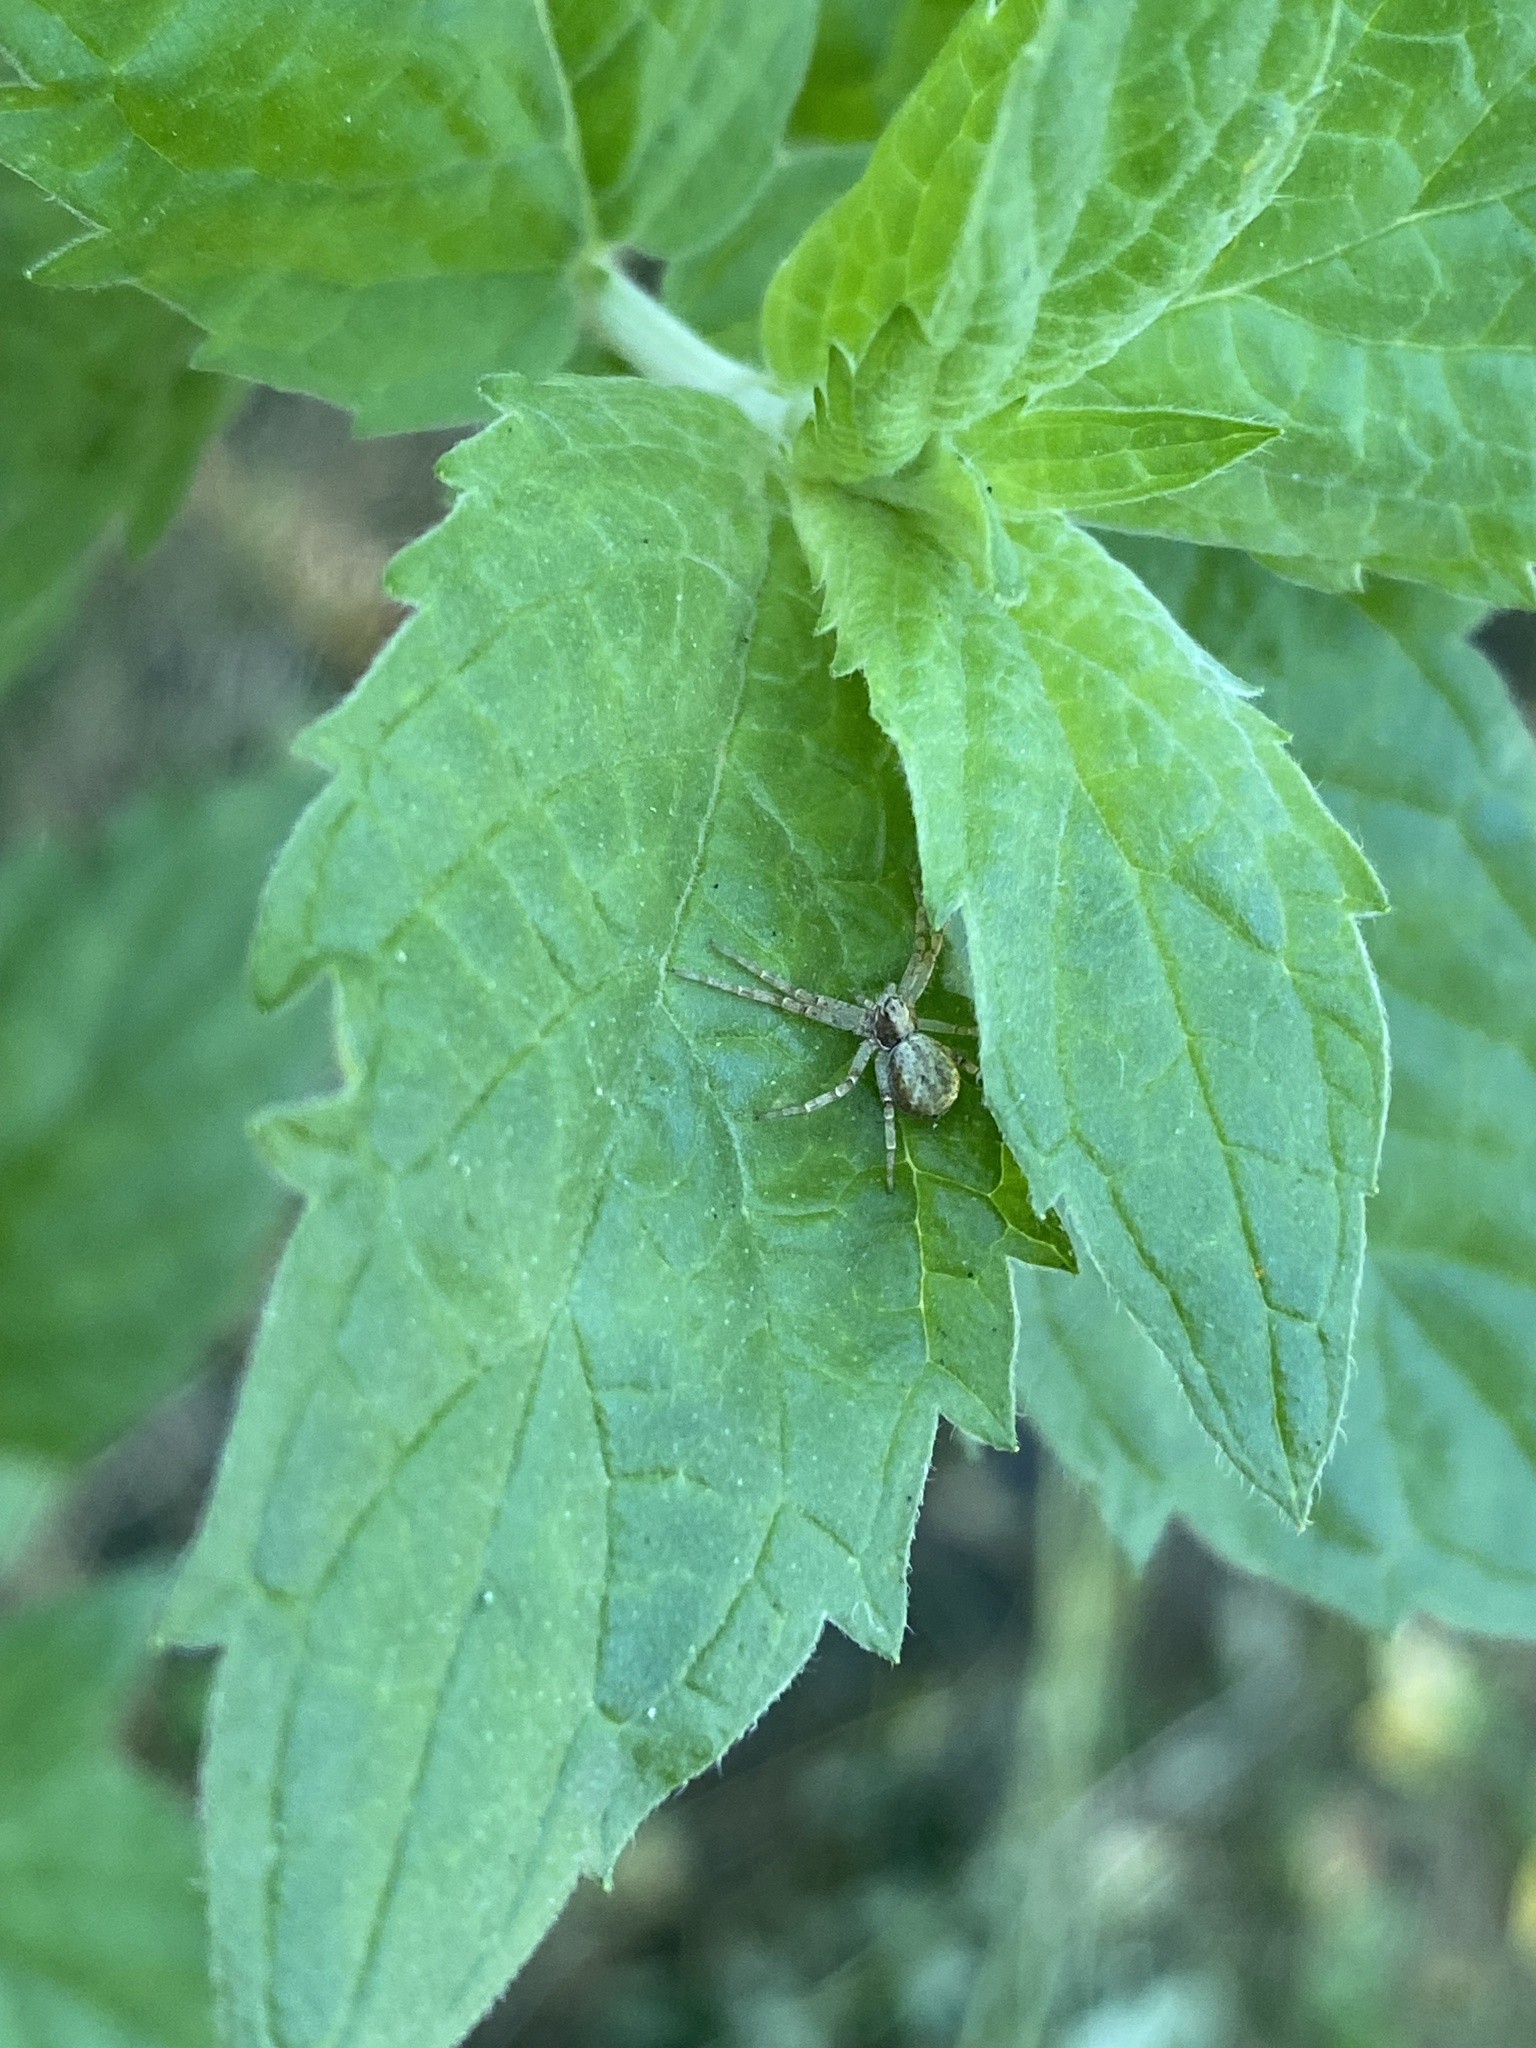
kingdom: Animalia
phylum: Arthropoda
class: Arachnida
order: Araneae
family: Philodromidae
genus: Philodromus
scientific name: Philodromus
